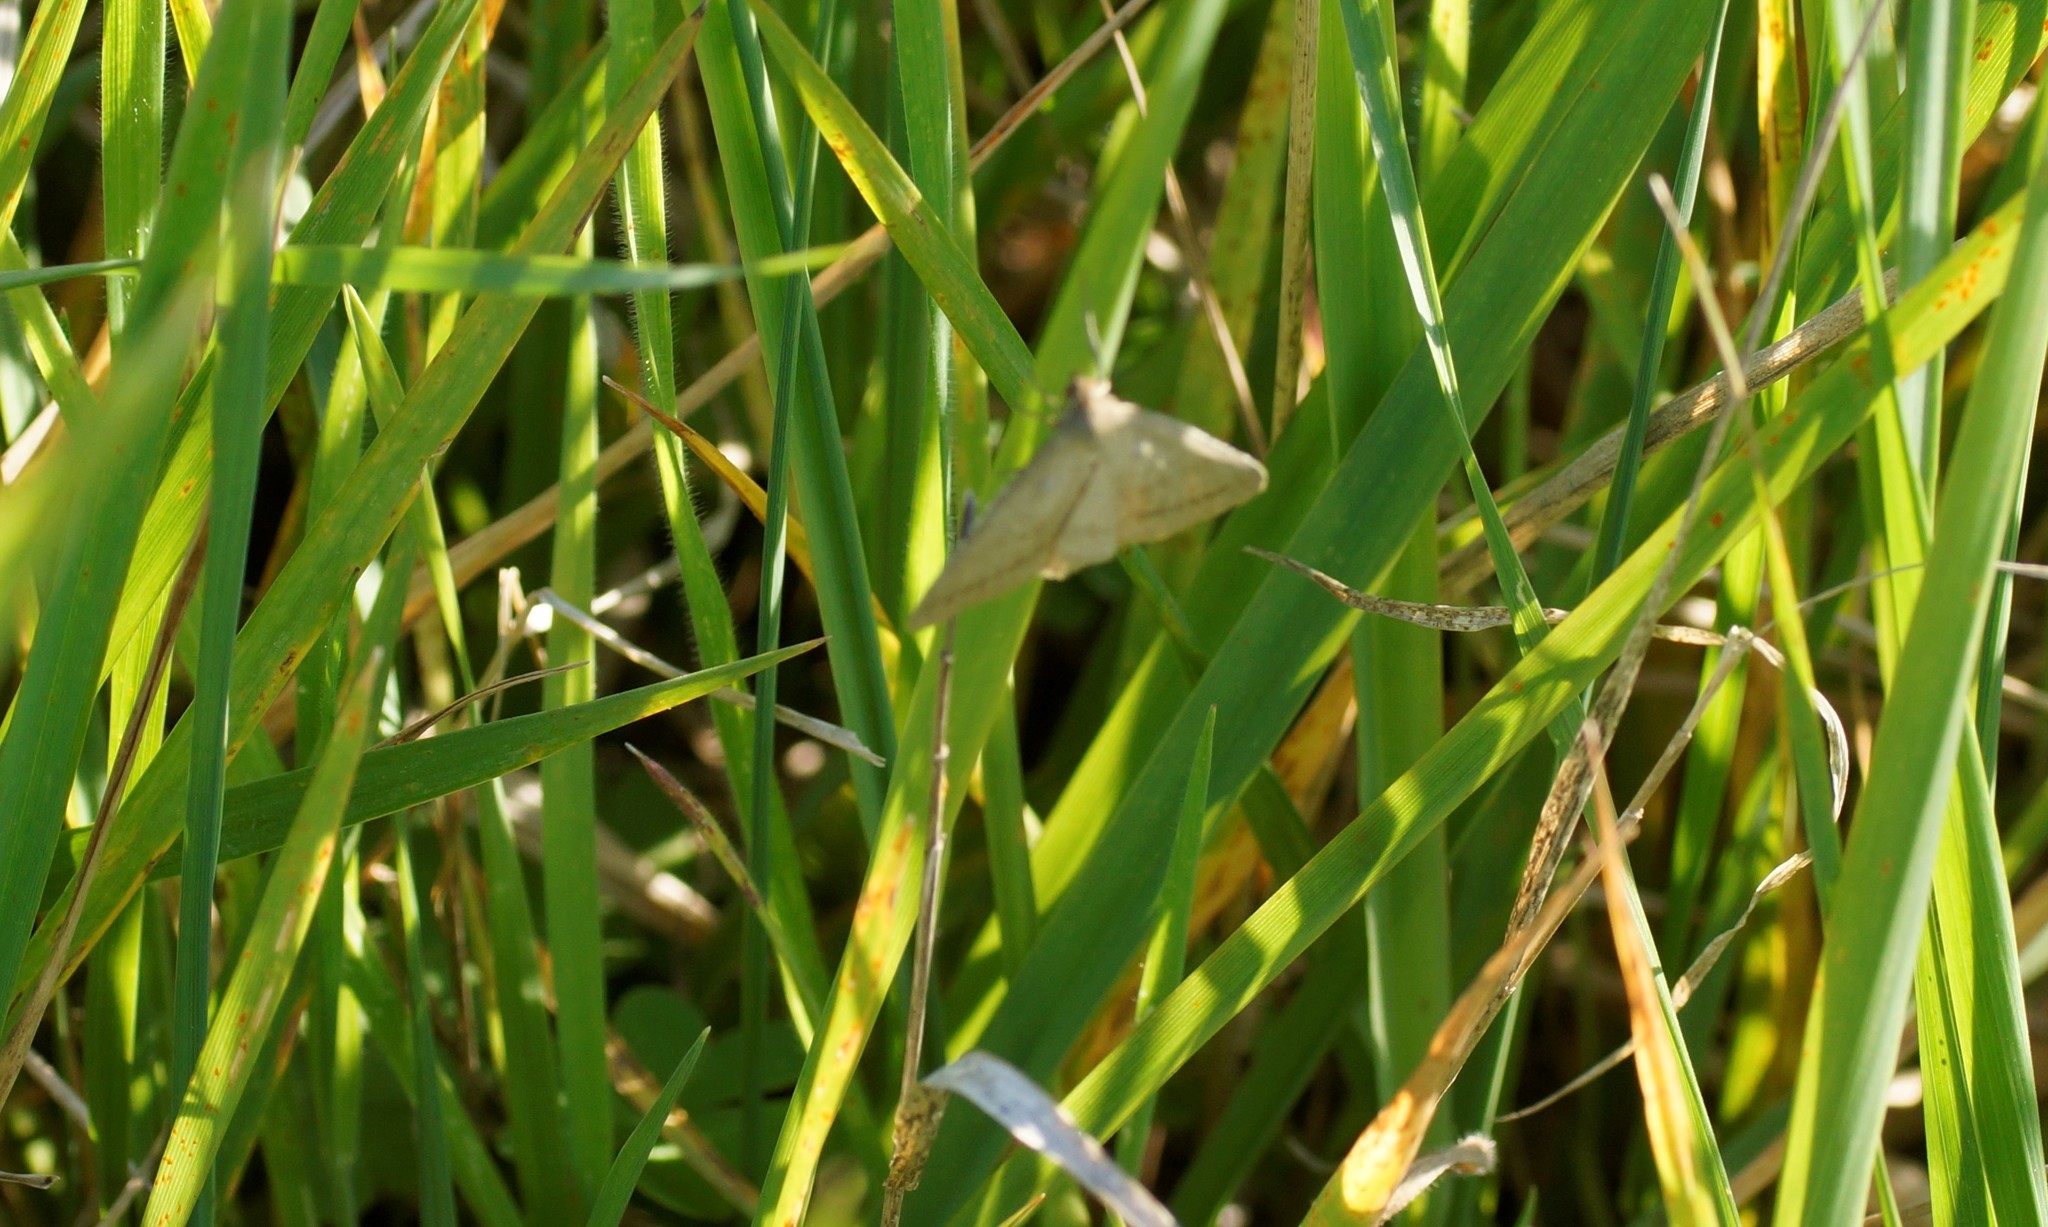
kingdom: Animalia
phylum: Arthropoda
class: Insecta
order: Lepidoptera
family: Geometridae
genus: Neritodes
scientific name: Neritodes verrucata
